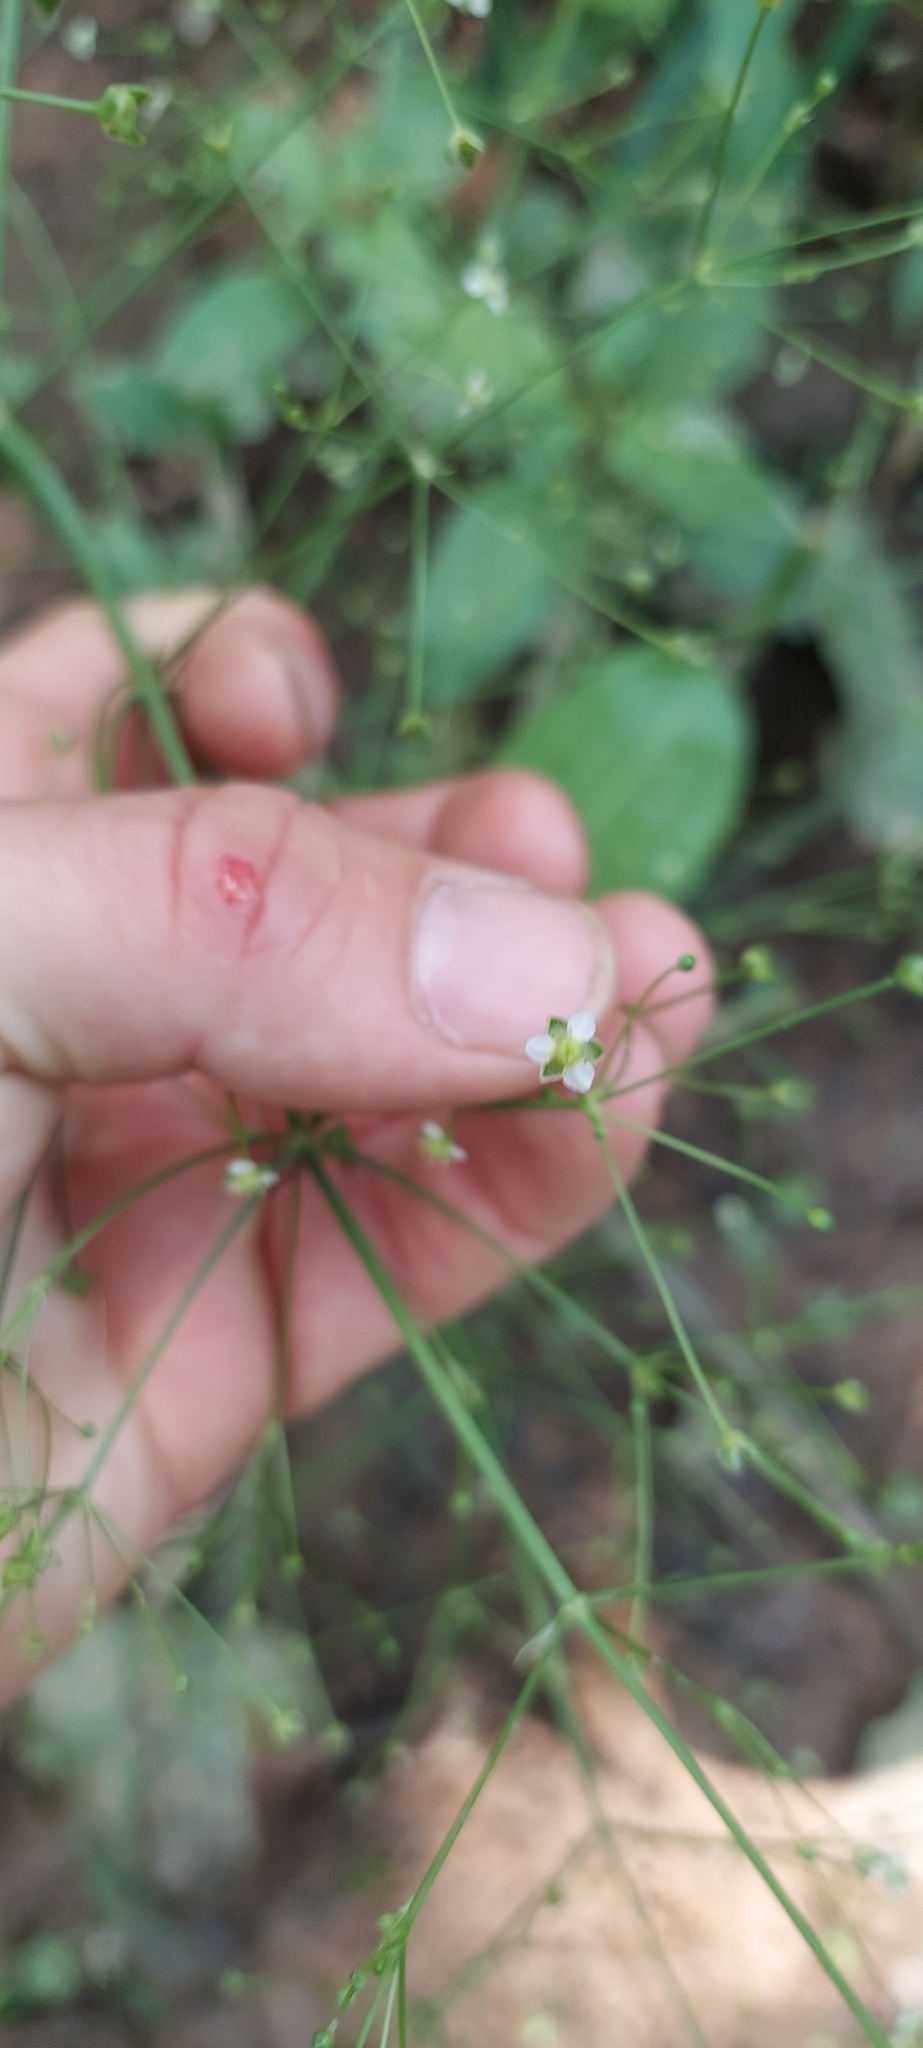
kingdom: Plantae
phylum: Tracheophyta
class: Liliopsida
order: Alismatales
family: Alismataceae
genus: Alisma
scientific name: Alisma subcordatum
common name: Southern water-plantain
